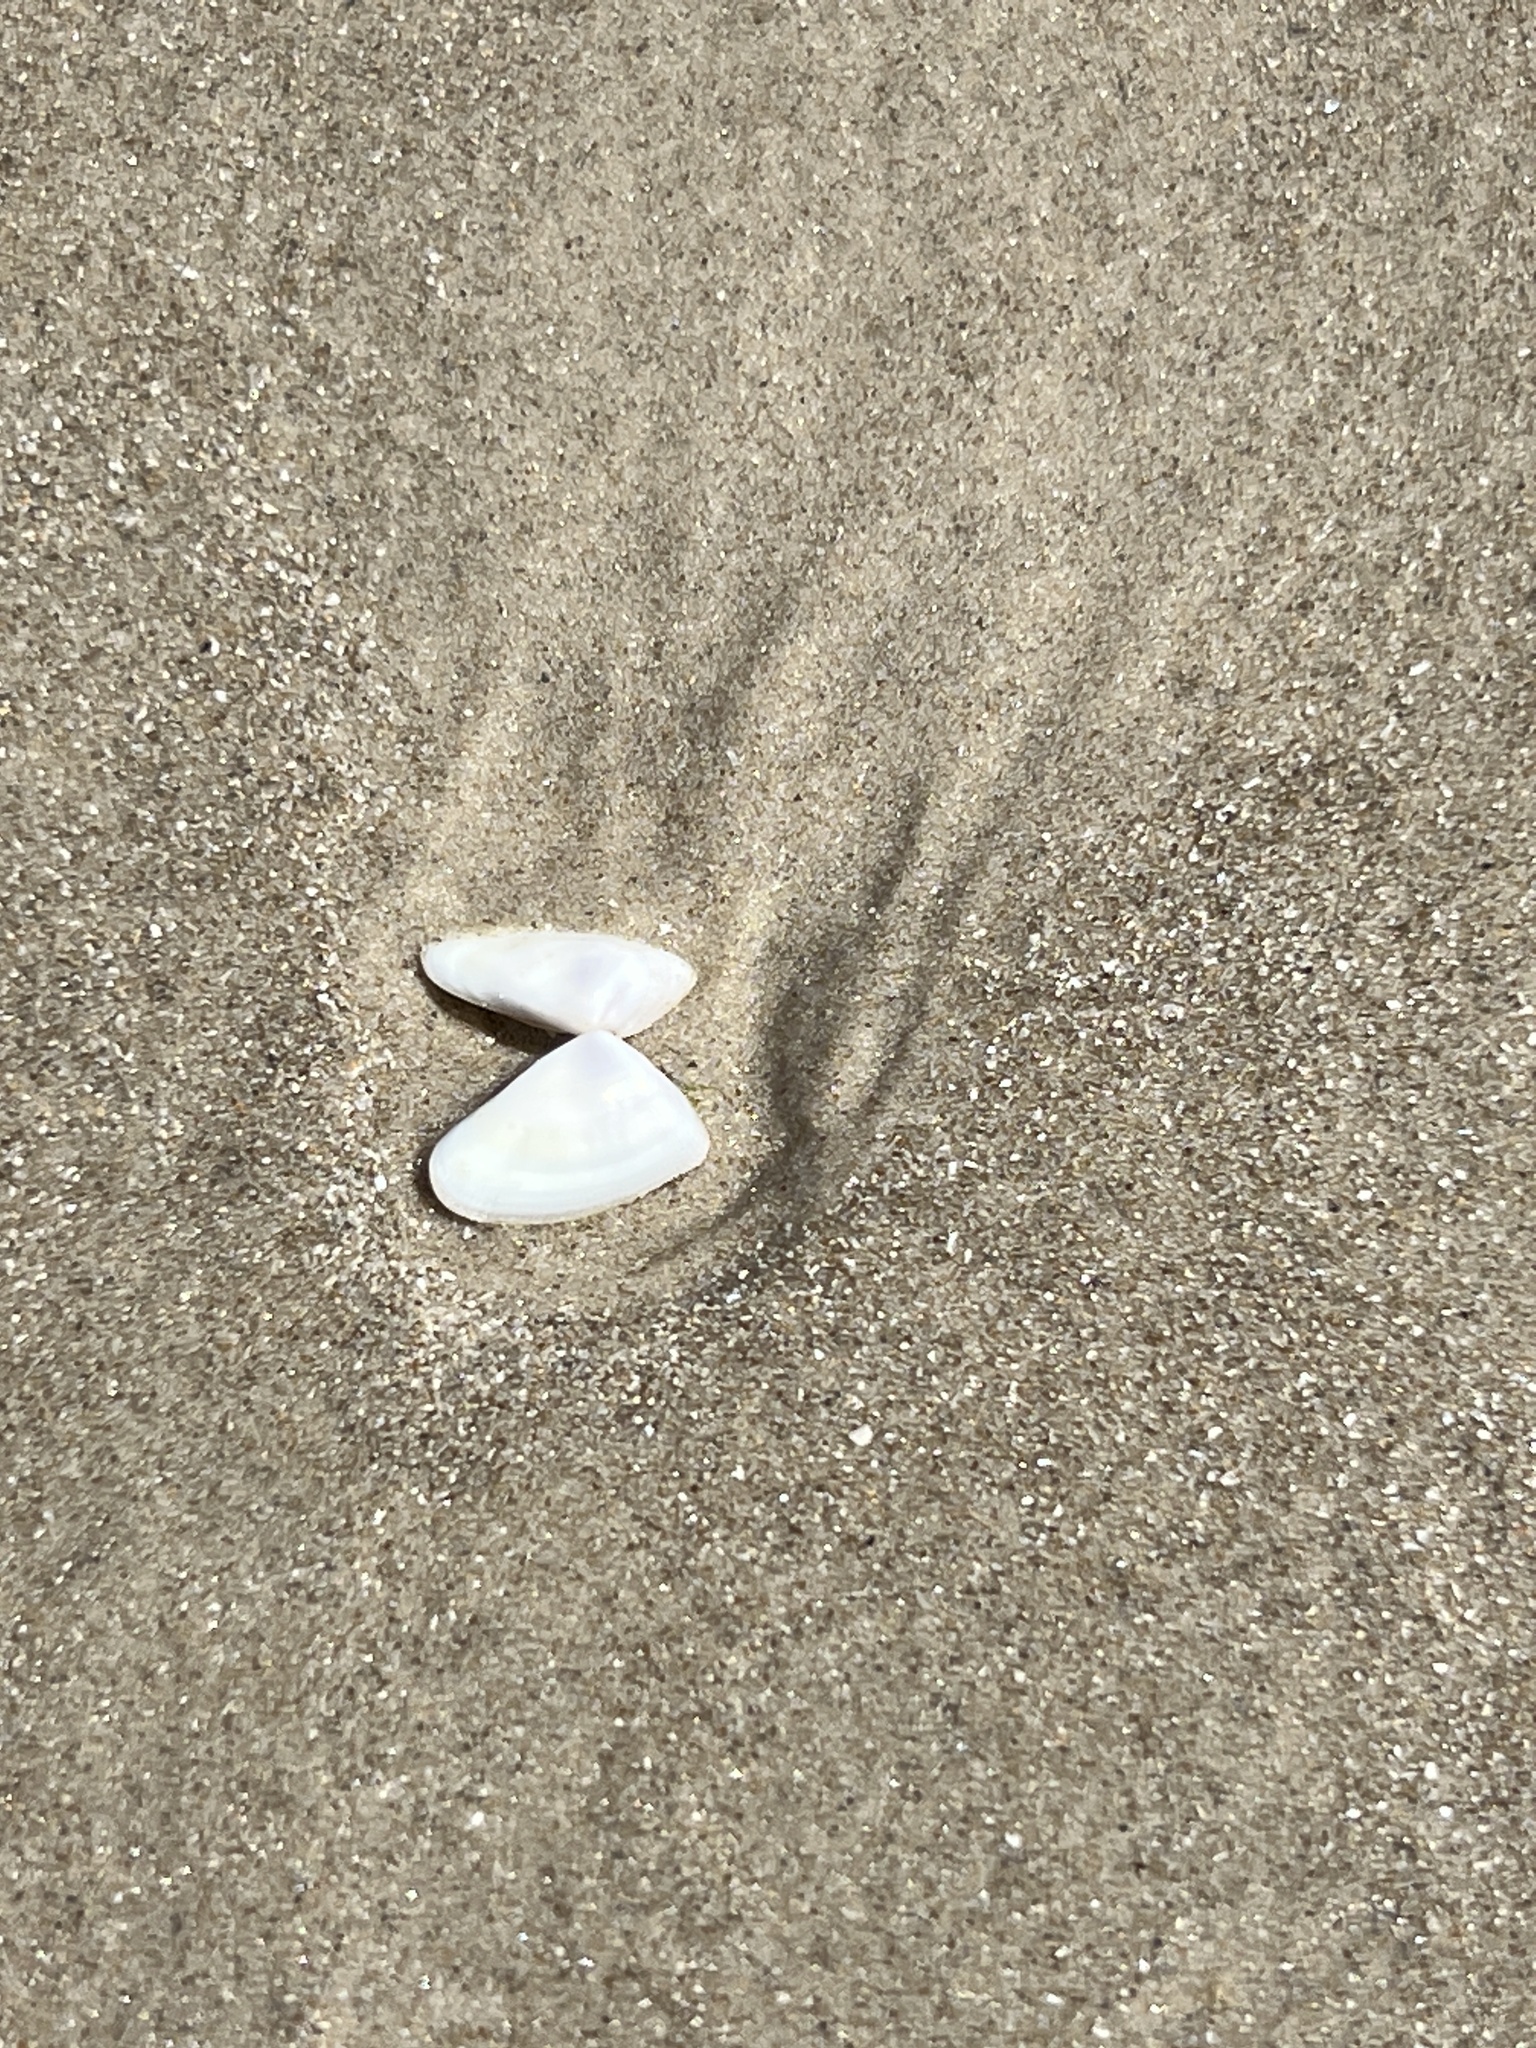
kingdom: Animalia
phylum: Mollusca
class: Bivalvia
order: Cardiida
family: Donacidae
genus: Donax
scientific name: Donax variabilis
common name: Butterfly shell
